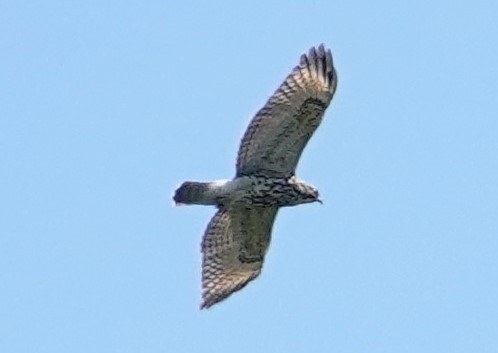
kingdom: Animalia
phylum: Chordata
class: Aves
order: Accipitriformes
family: Accipitridae
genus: Buteo
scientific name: Buteo lineatus
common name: Red-shouldered hawk
